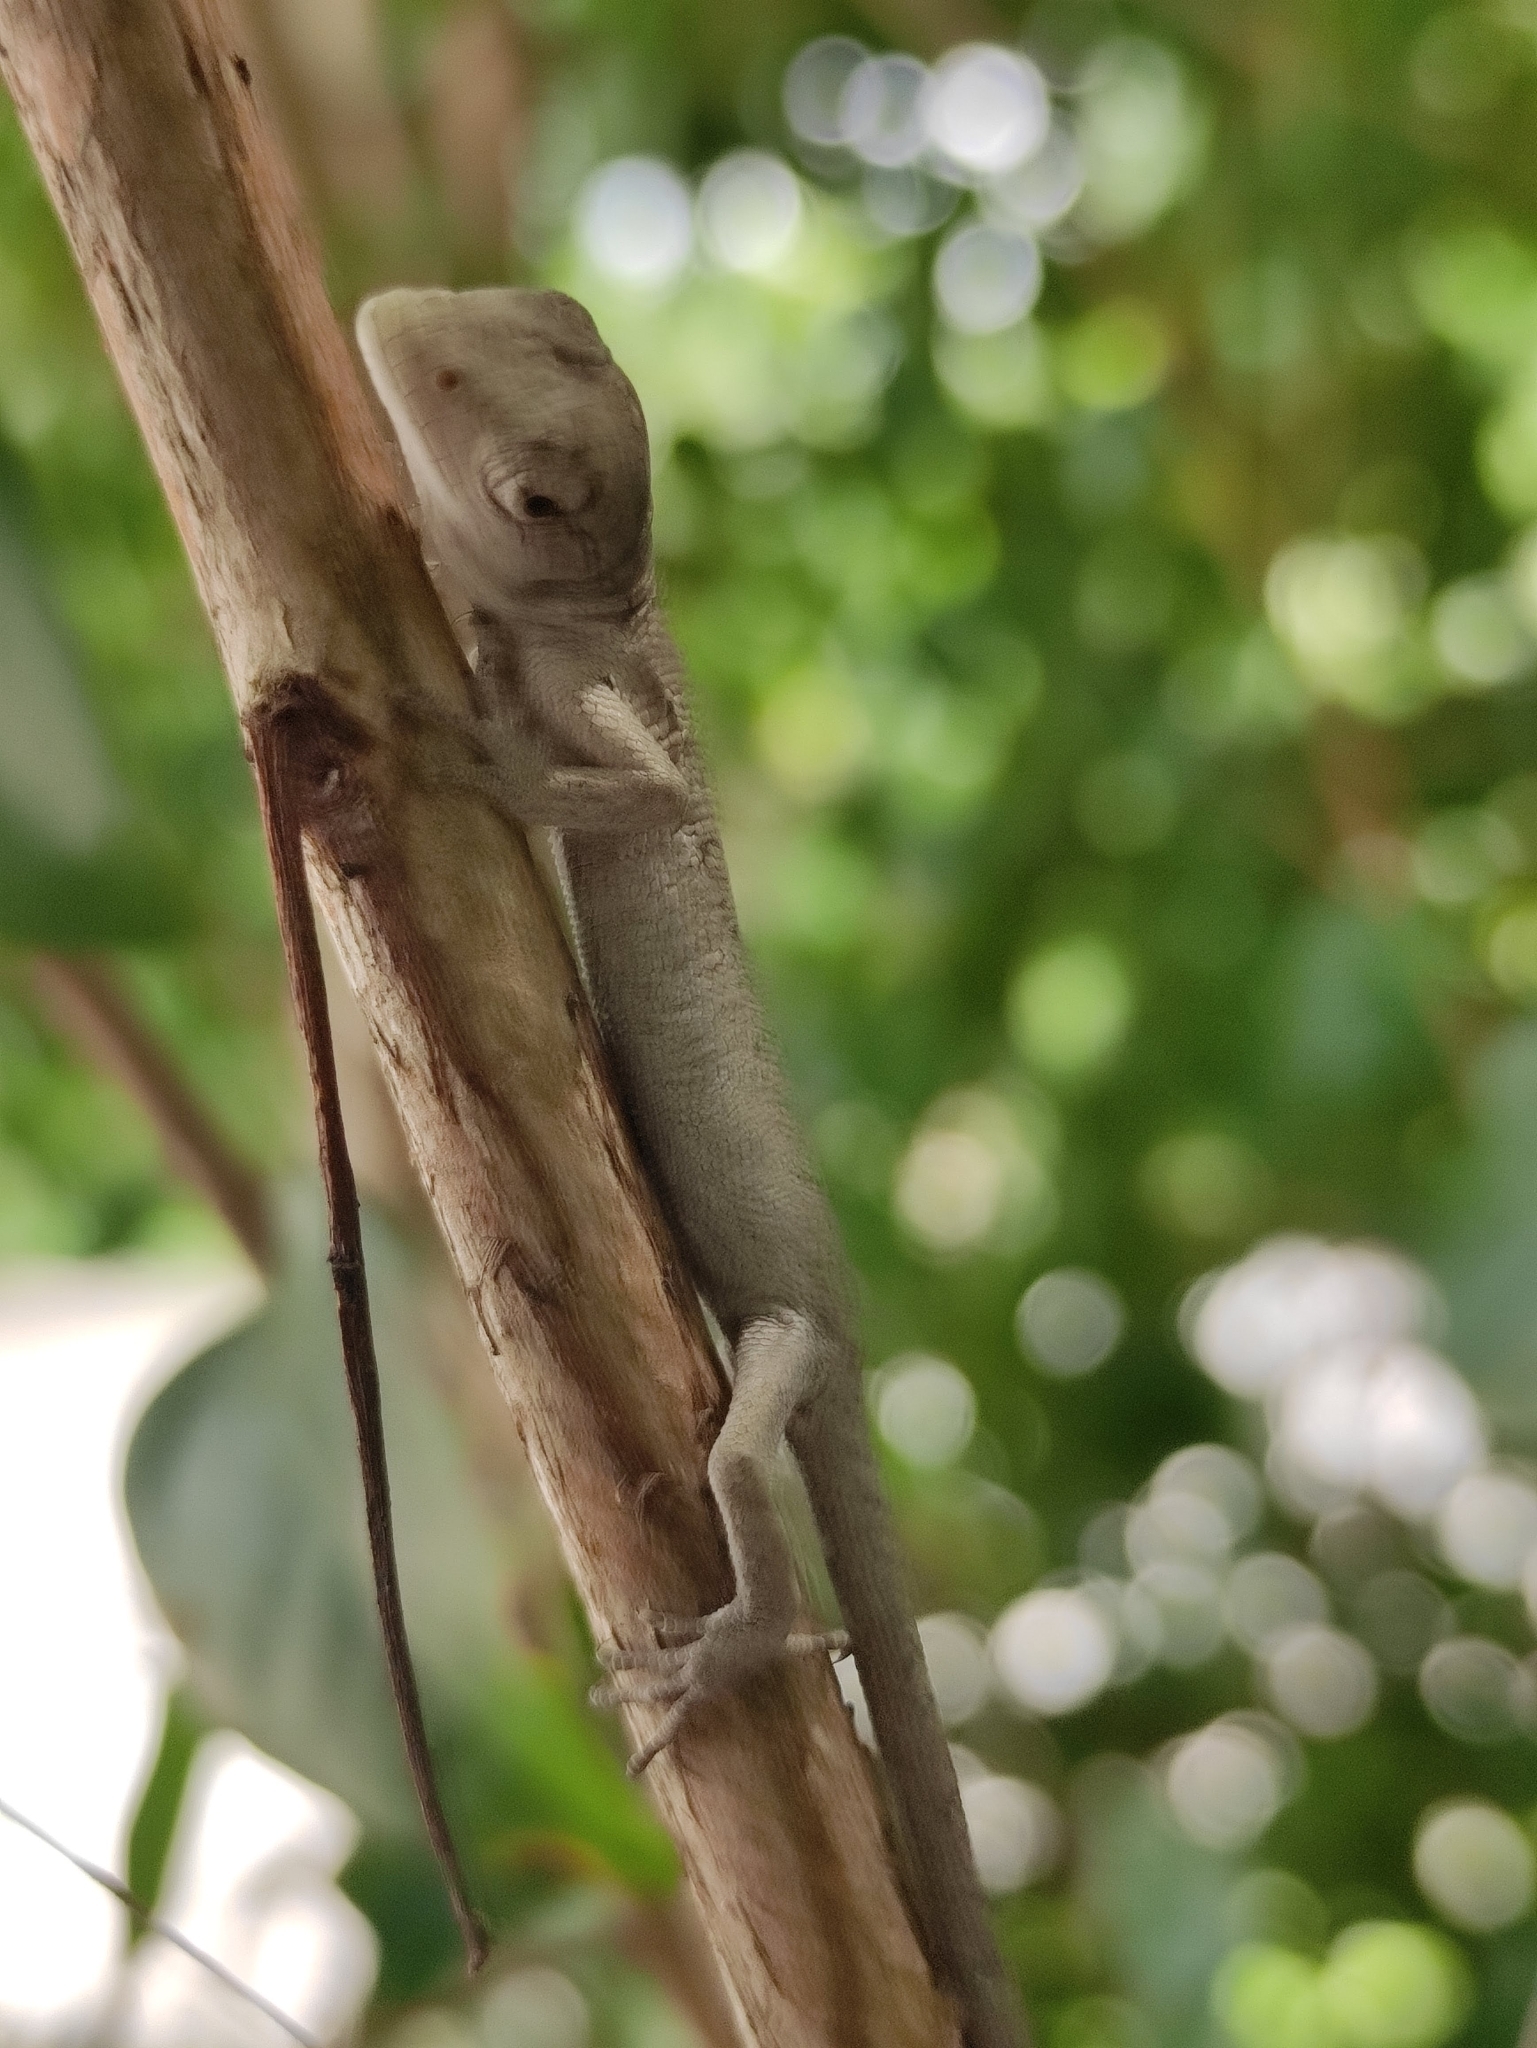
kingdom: Animalia
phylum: Chordata
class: Squamata
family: Polychrotidae
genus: Polychrus
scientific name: Polychrus marmoratus
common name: Many-colored bush anole
